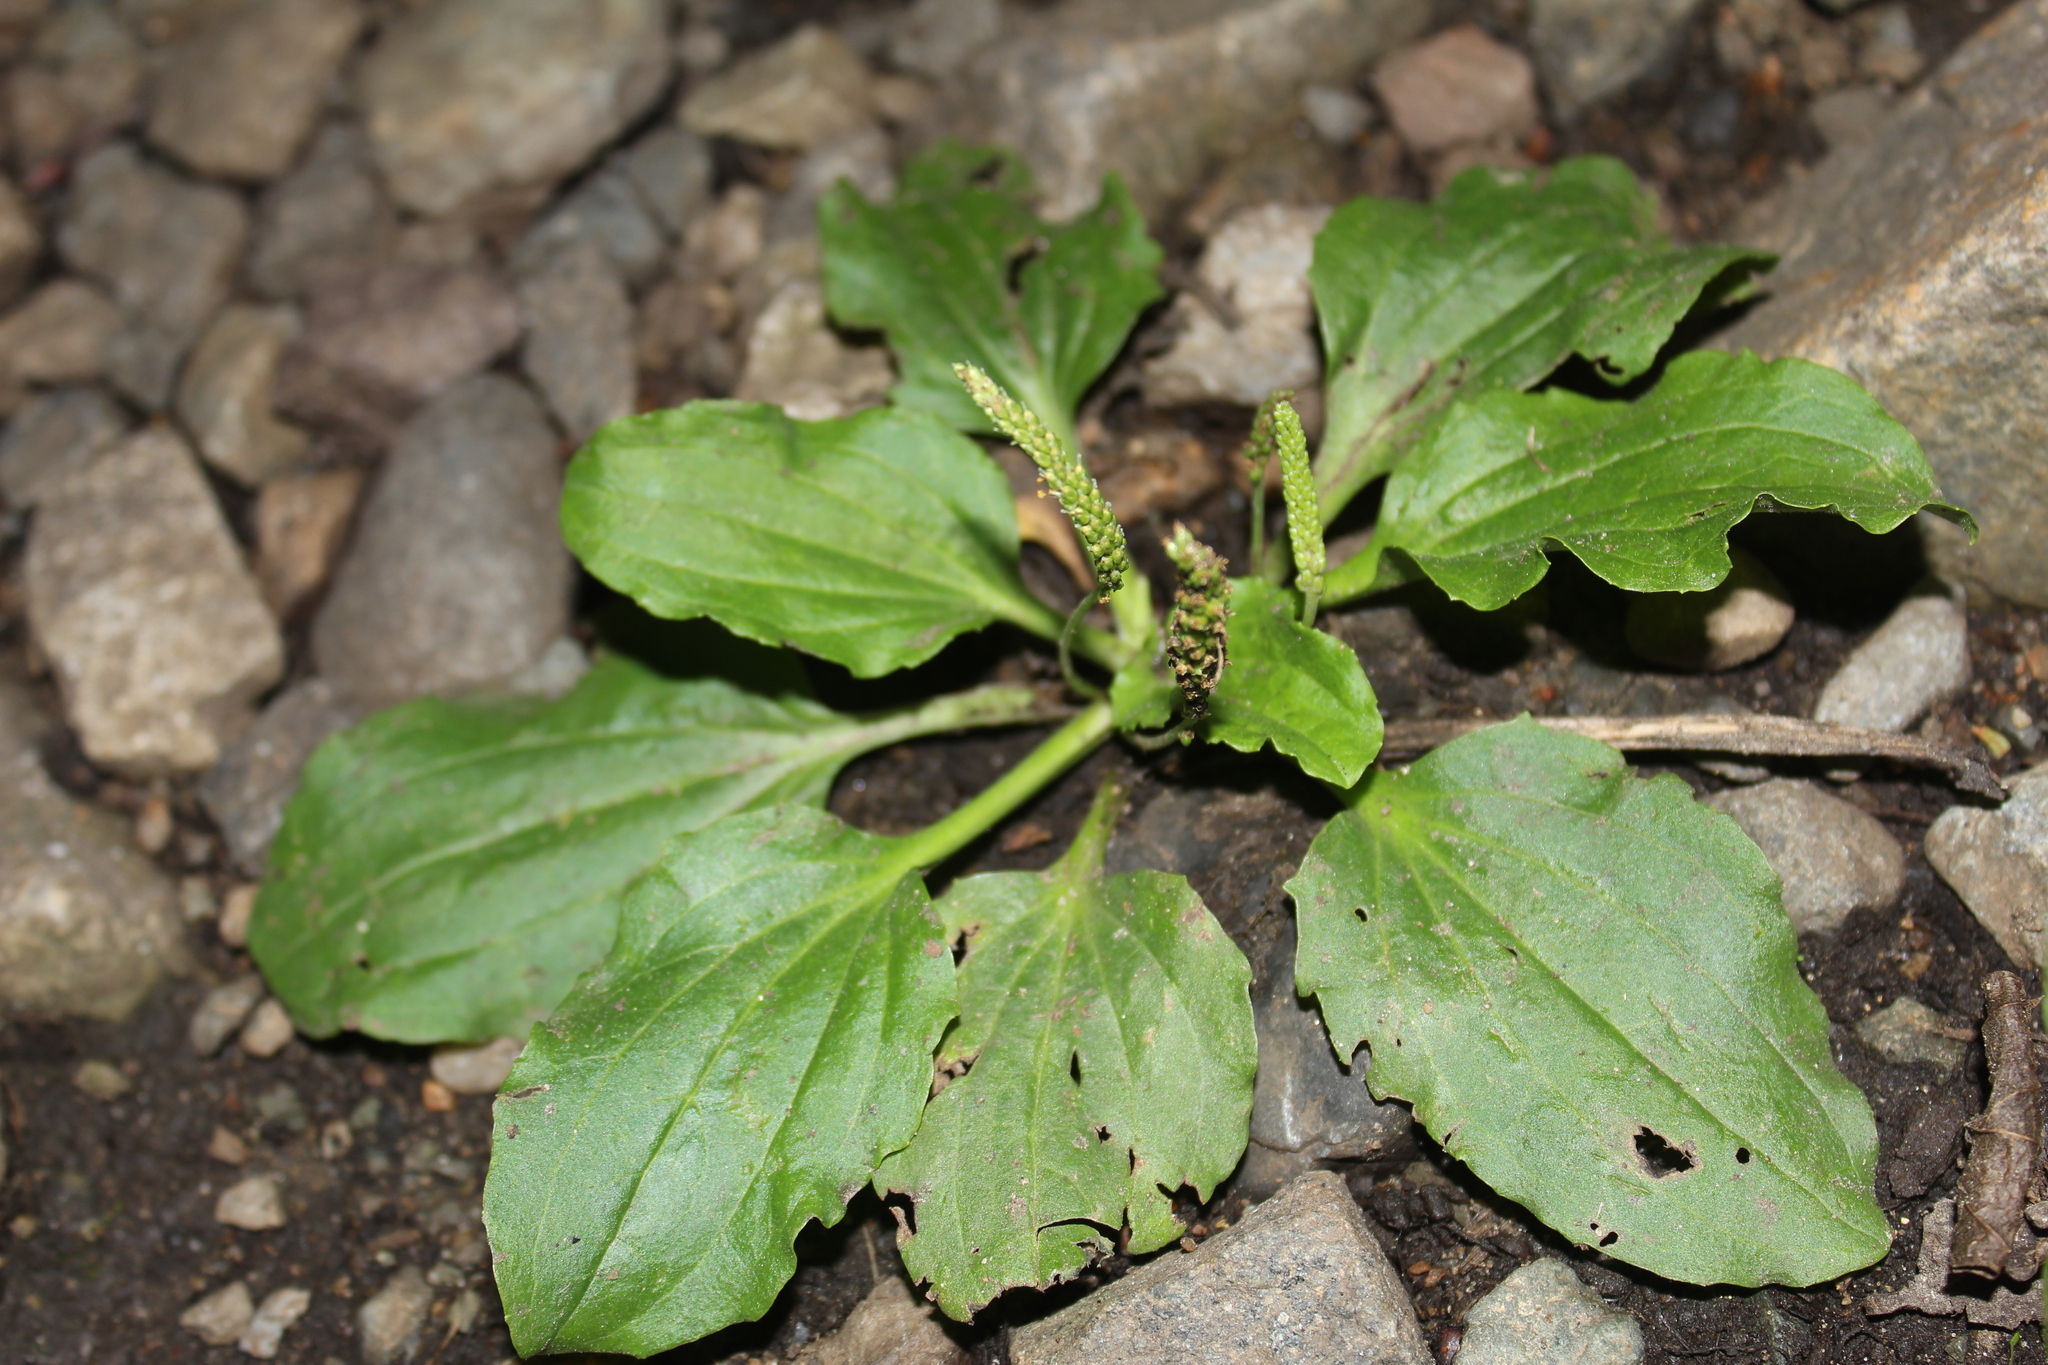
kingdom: Plantae
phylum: Tracheophyta
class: Magnoliopsida
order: Lamiales
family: Plantaginaceae
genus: Plantago
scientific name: Plantago major
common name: Common plantain
